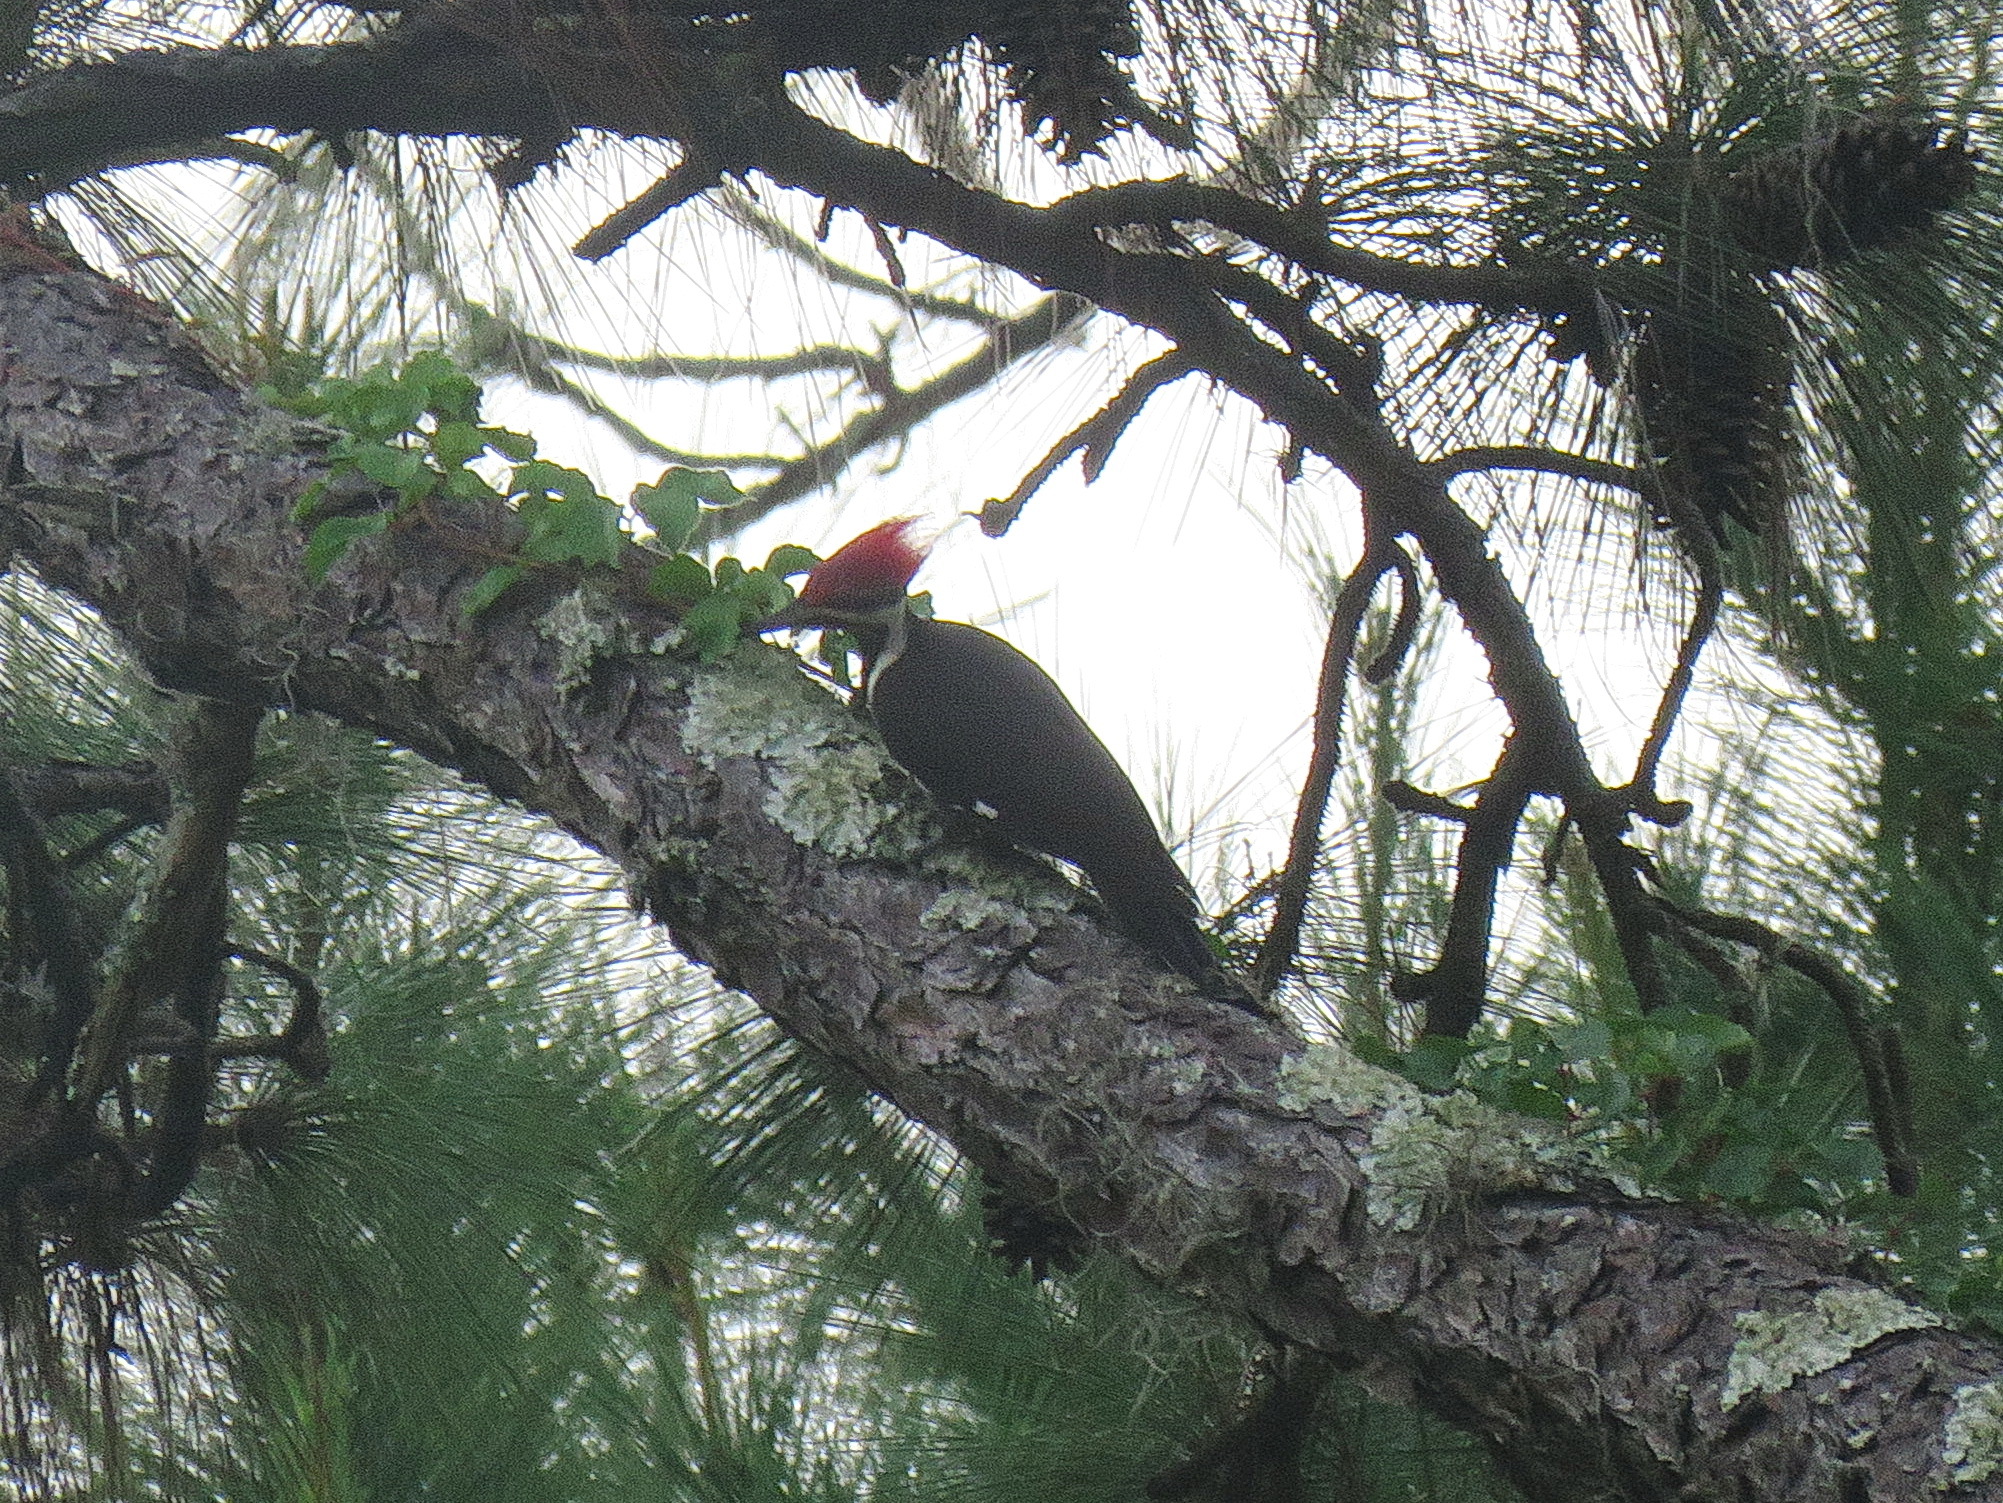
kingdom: Animalia
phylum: Chordata
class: Aves
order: Piciformes
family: Picidae
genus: Dryocopus
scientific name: Dryocopus pileatus
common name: Pileated woodpecker
